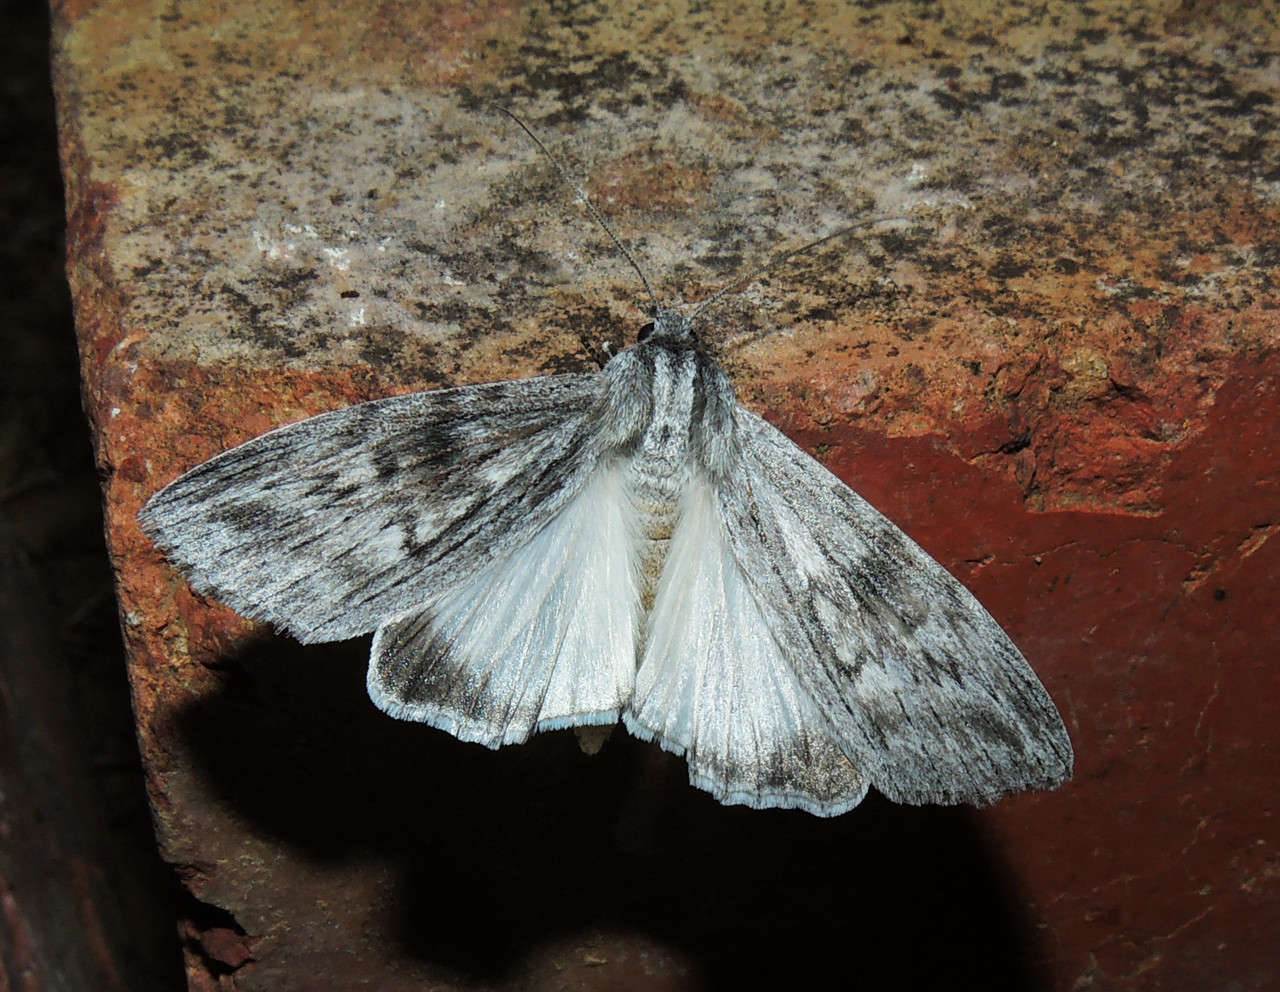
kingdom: Animalia
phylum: Arthropoda
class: Insecta
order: Lepidoptera
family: Geometridae
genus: Capusa
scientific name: Capusa senilis
